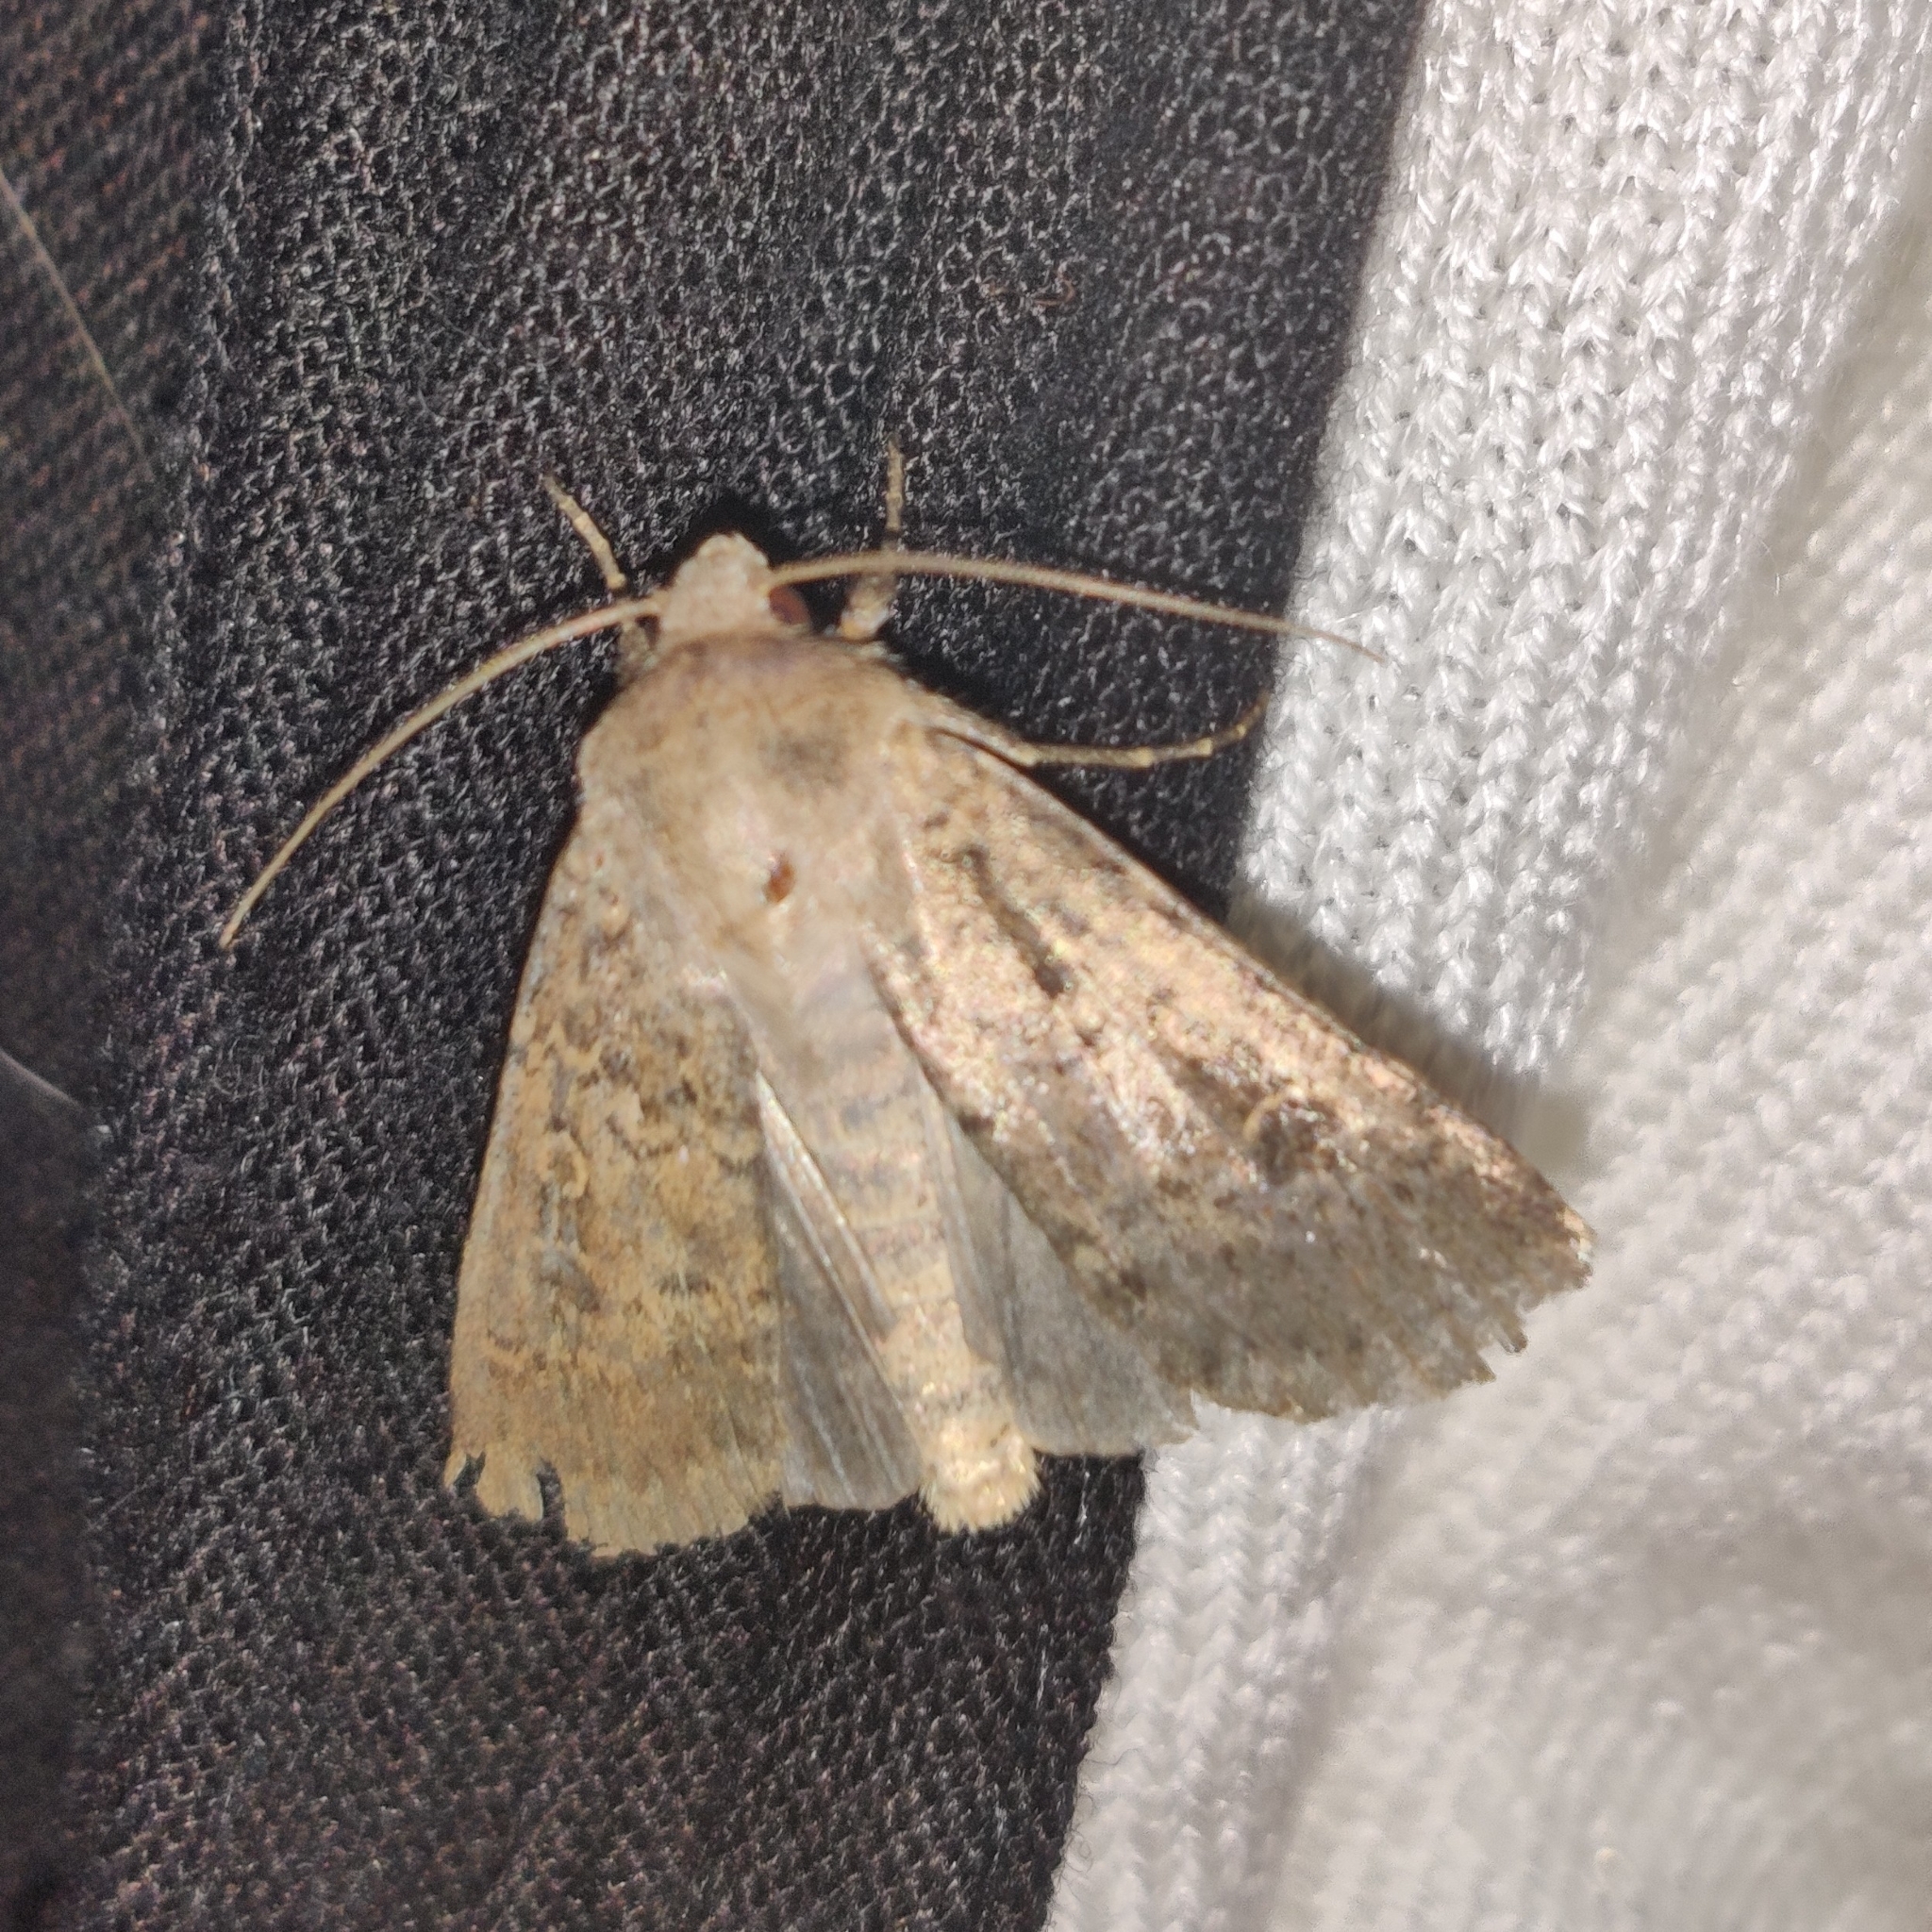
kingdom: Animalia
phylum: Arthropoda
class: Insecta
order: Lepidoptera
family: Noctuidae
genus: Rhyacia
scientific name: Rhyacia simulans
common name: Dotted rustic
